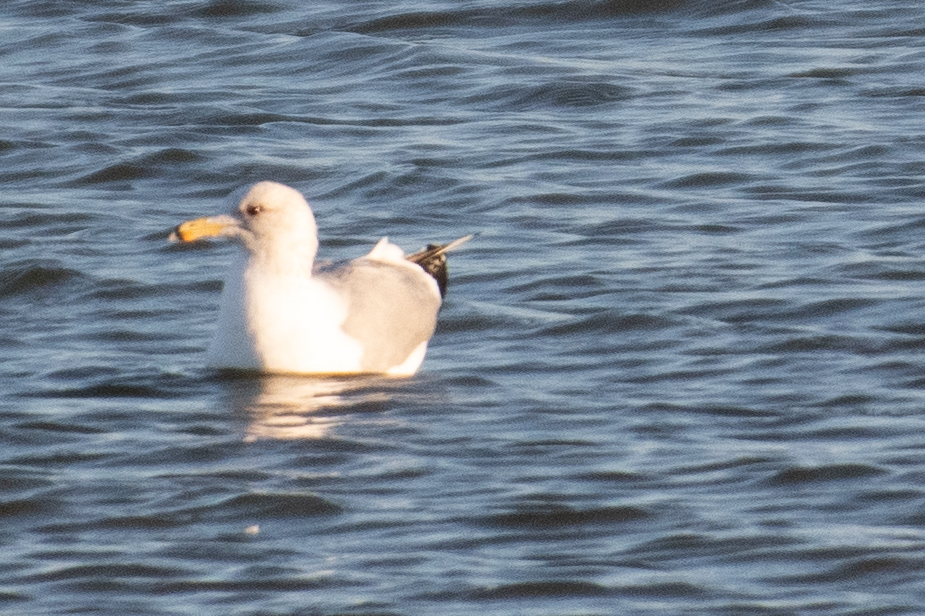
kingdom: Animalia
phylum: Chordata
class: Aves
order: Charadriiformes
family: Laridae
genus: Larus
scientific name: Larus californicus
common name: California gull
